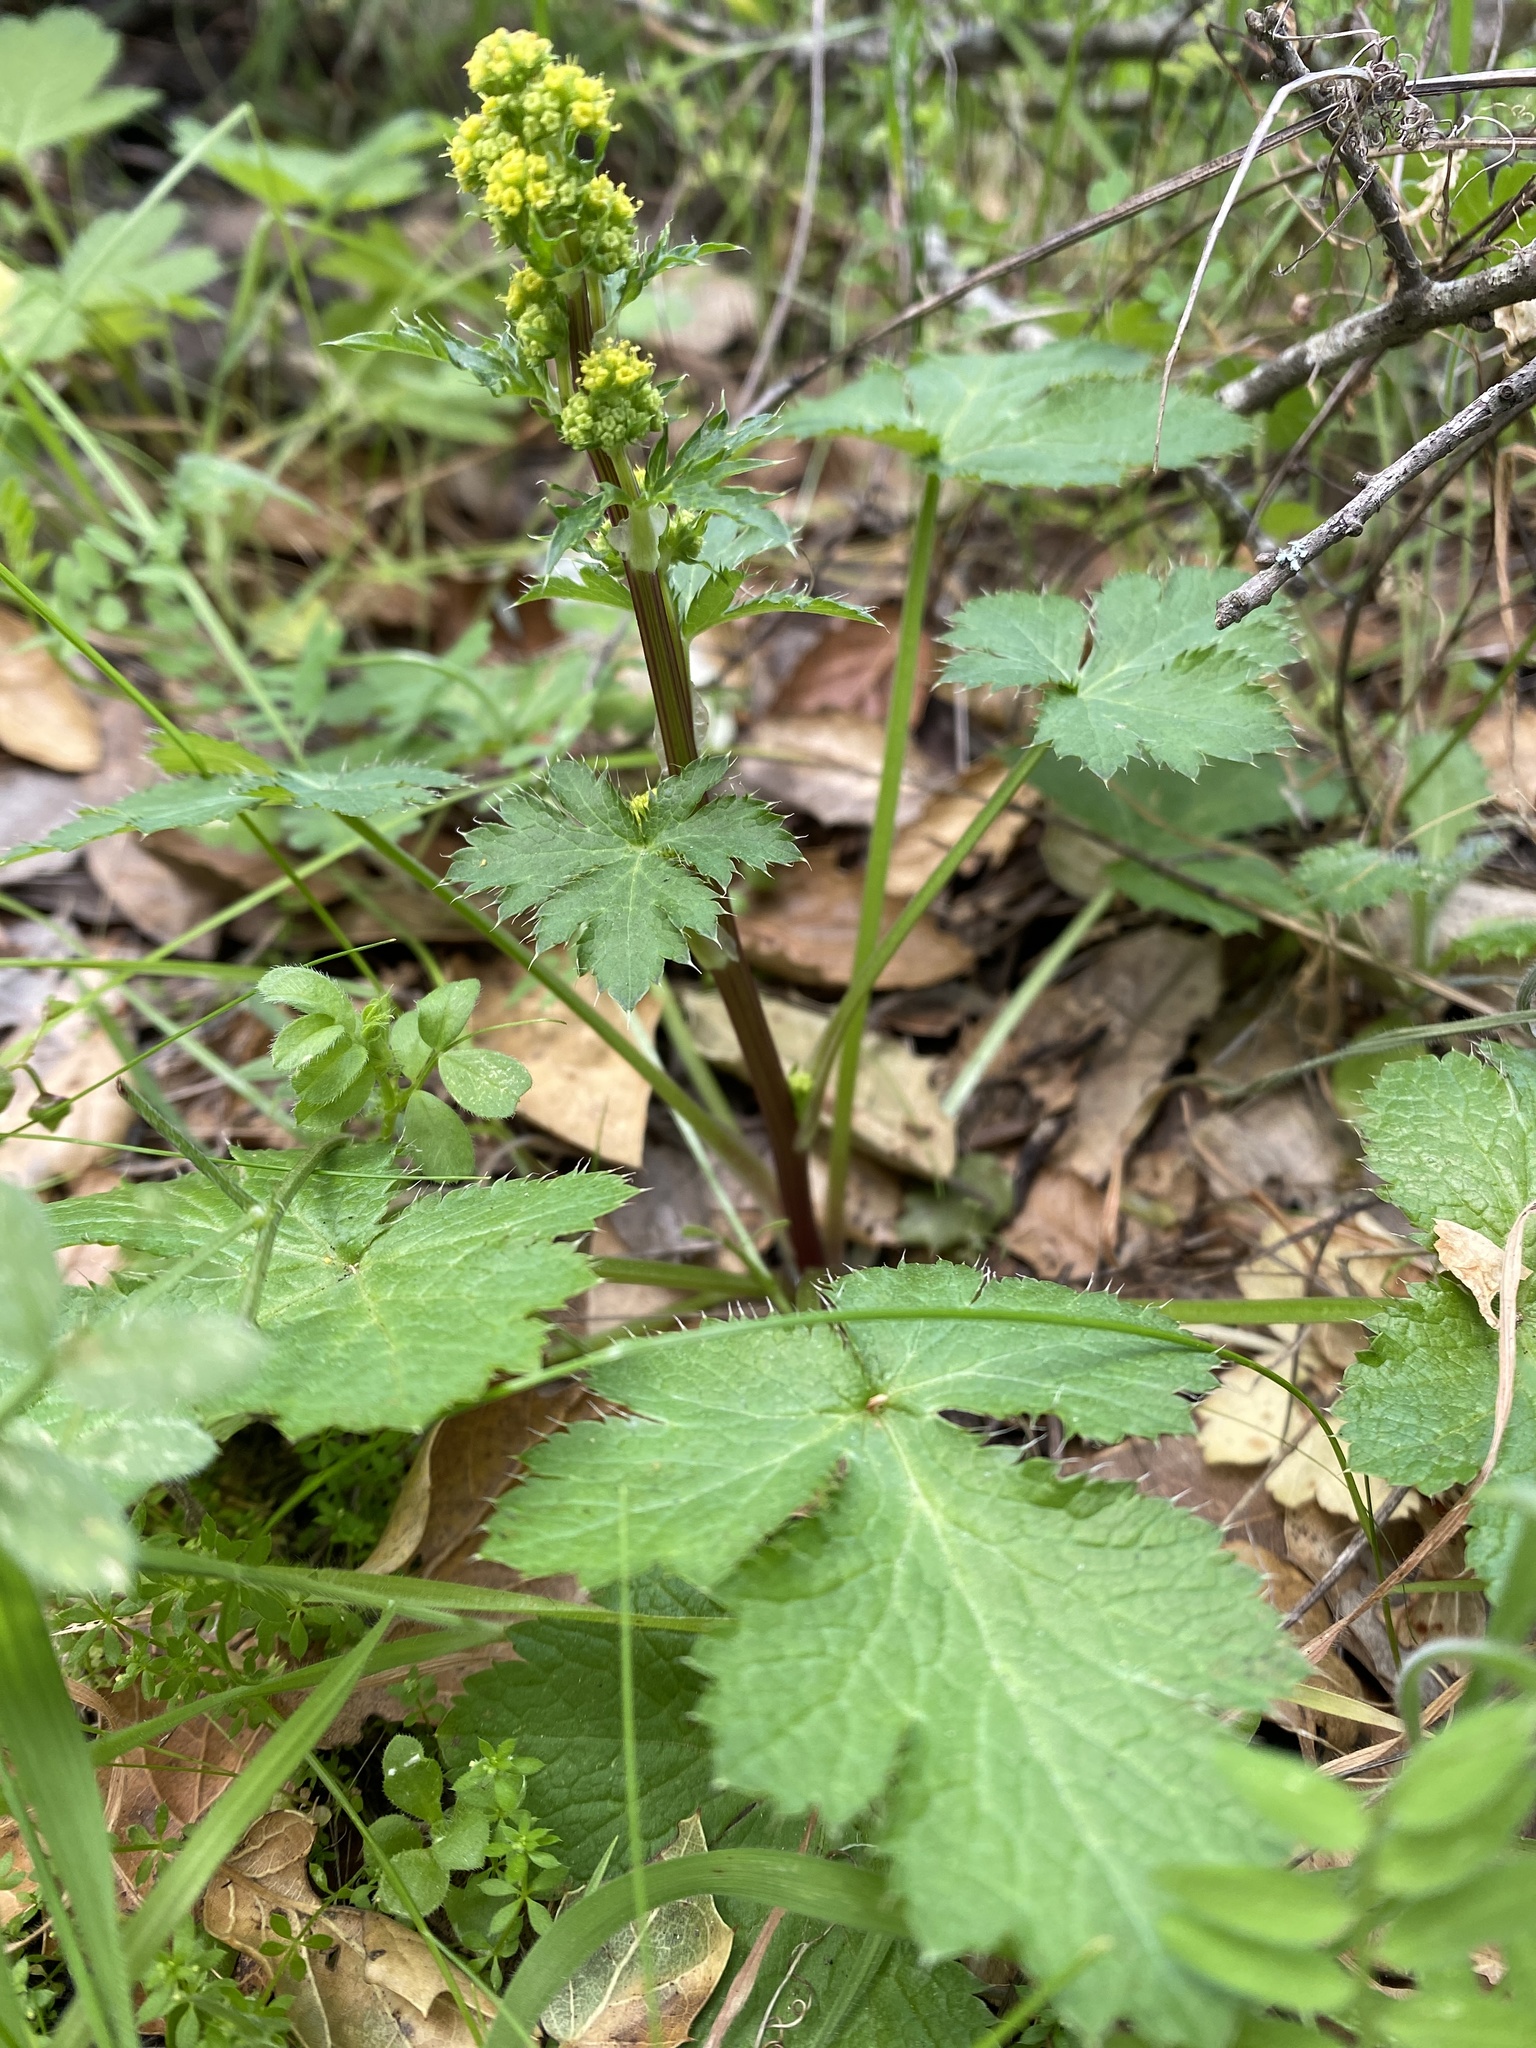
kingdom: Plantae
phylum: Tracheophyta
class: Magnoliopsida
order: Apiales
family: Apiaceae
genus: Sanicula
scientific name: Sanicula crassicaulis
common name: Western snakeroot
